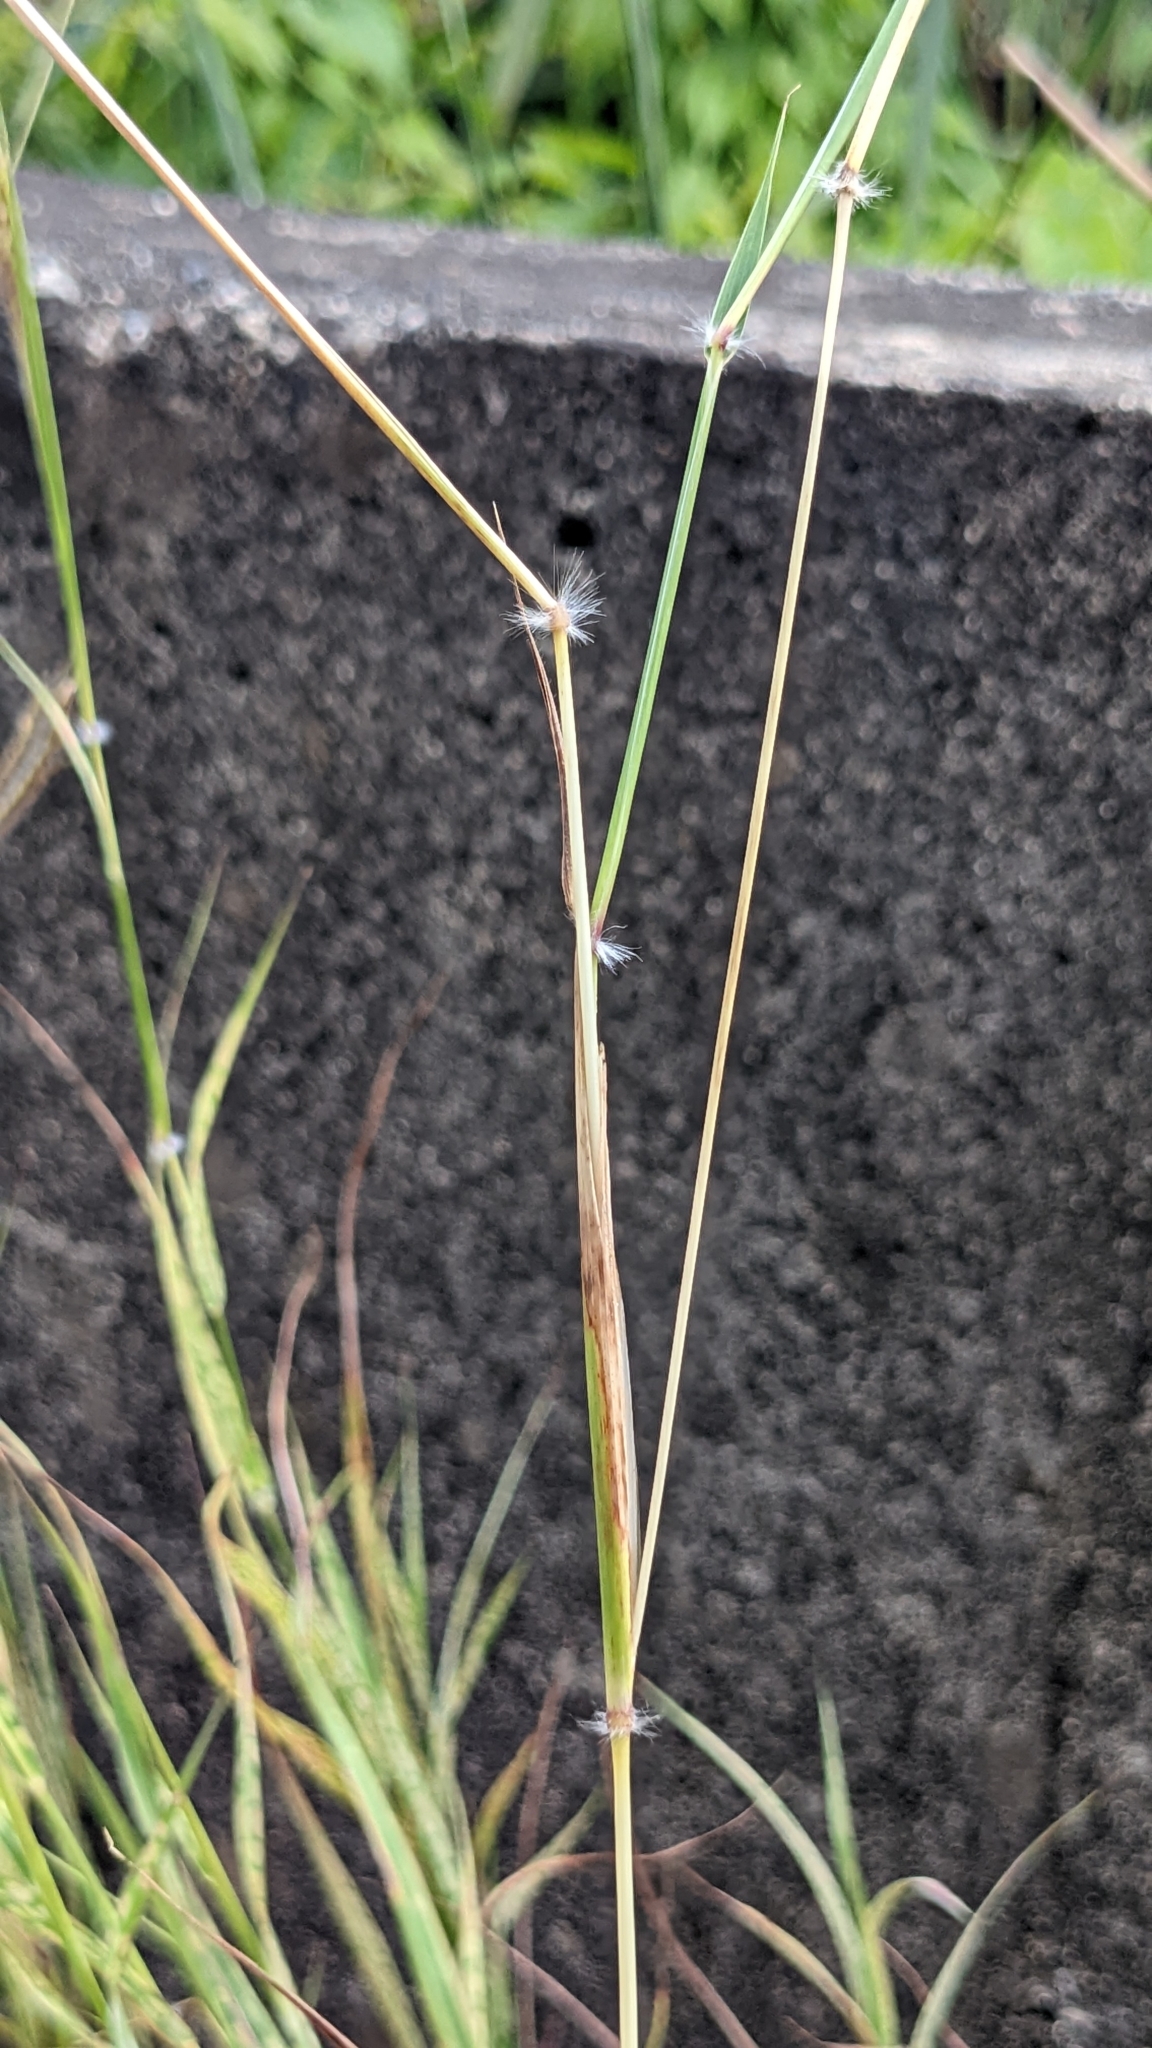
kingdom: Plantae
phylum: Tracheophyta
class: Liliopsida
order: Poales
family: Poaceae
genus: Dichanthium
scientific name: Dichanthium annulatum
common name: Kleberg's bluestem
